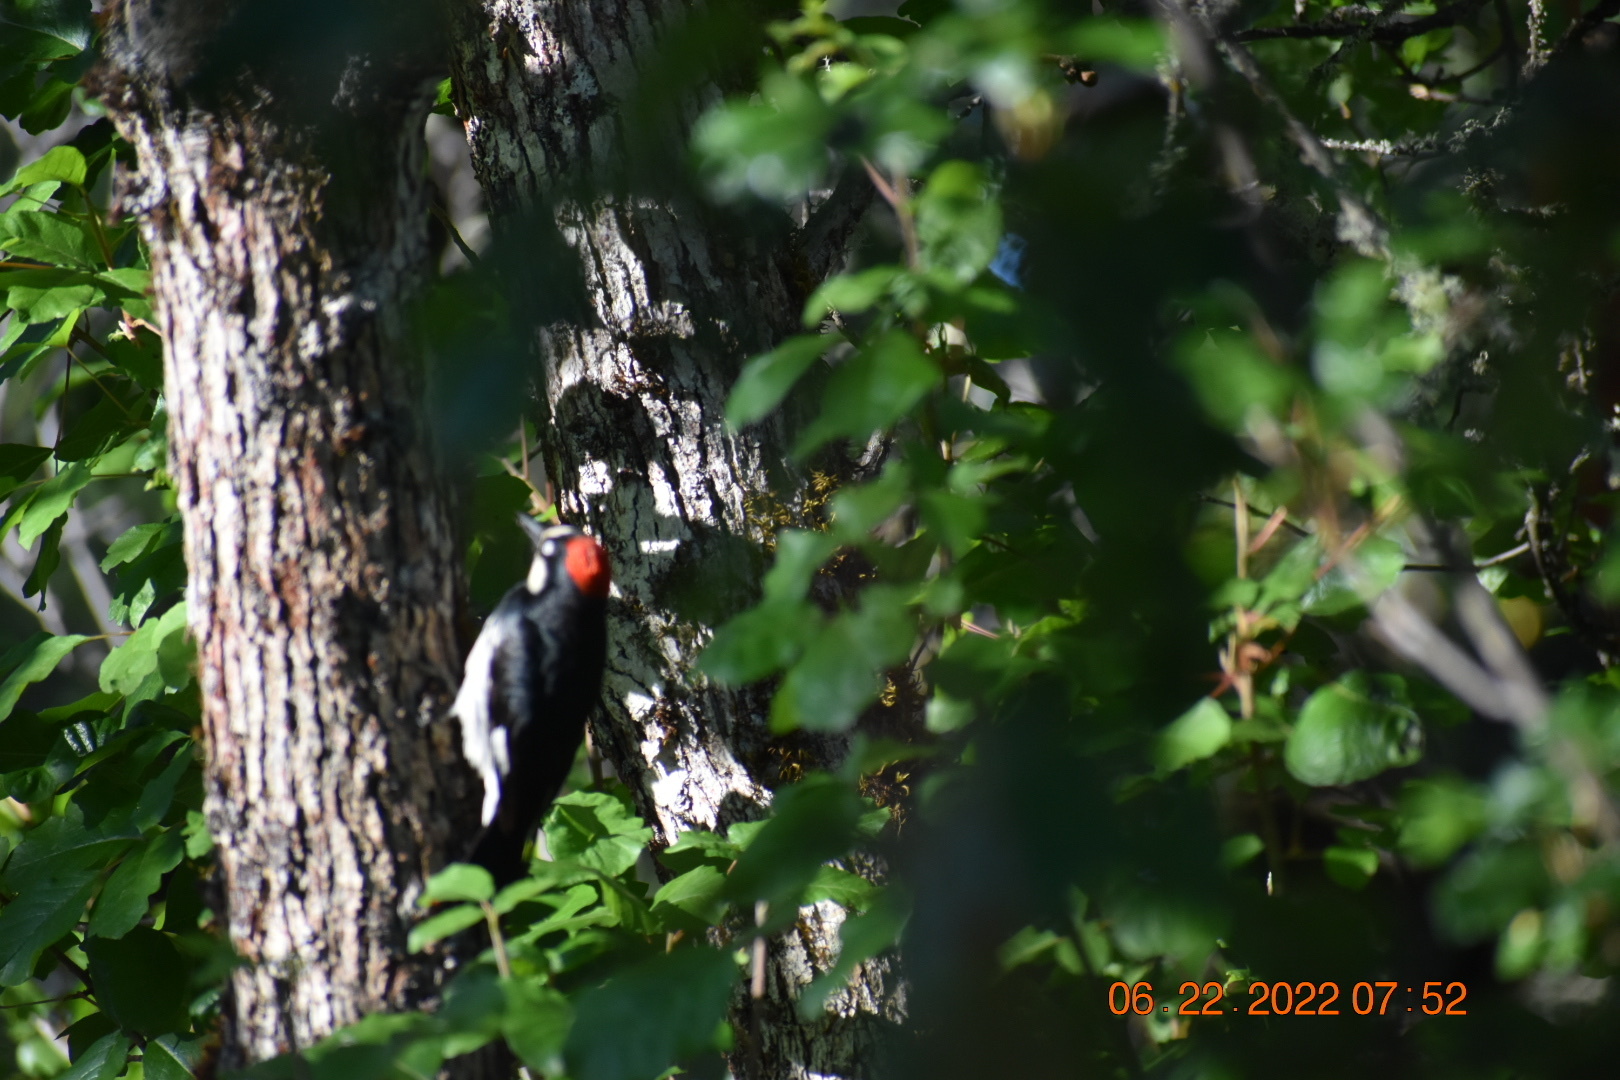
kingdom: Animalia
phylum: Chordata
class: Aves
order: Piciformes
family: Picidae
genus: Melanerpes
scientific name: Melanerpes formicivorus
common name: Acorn woodpecker
